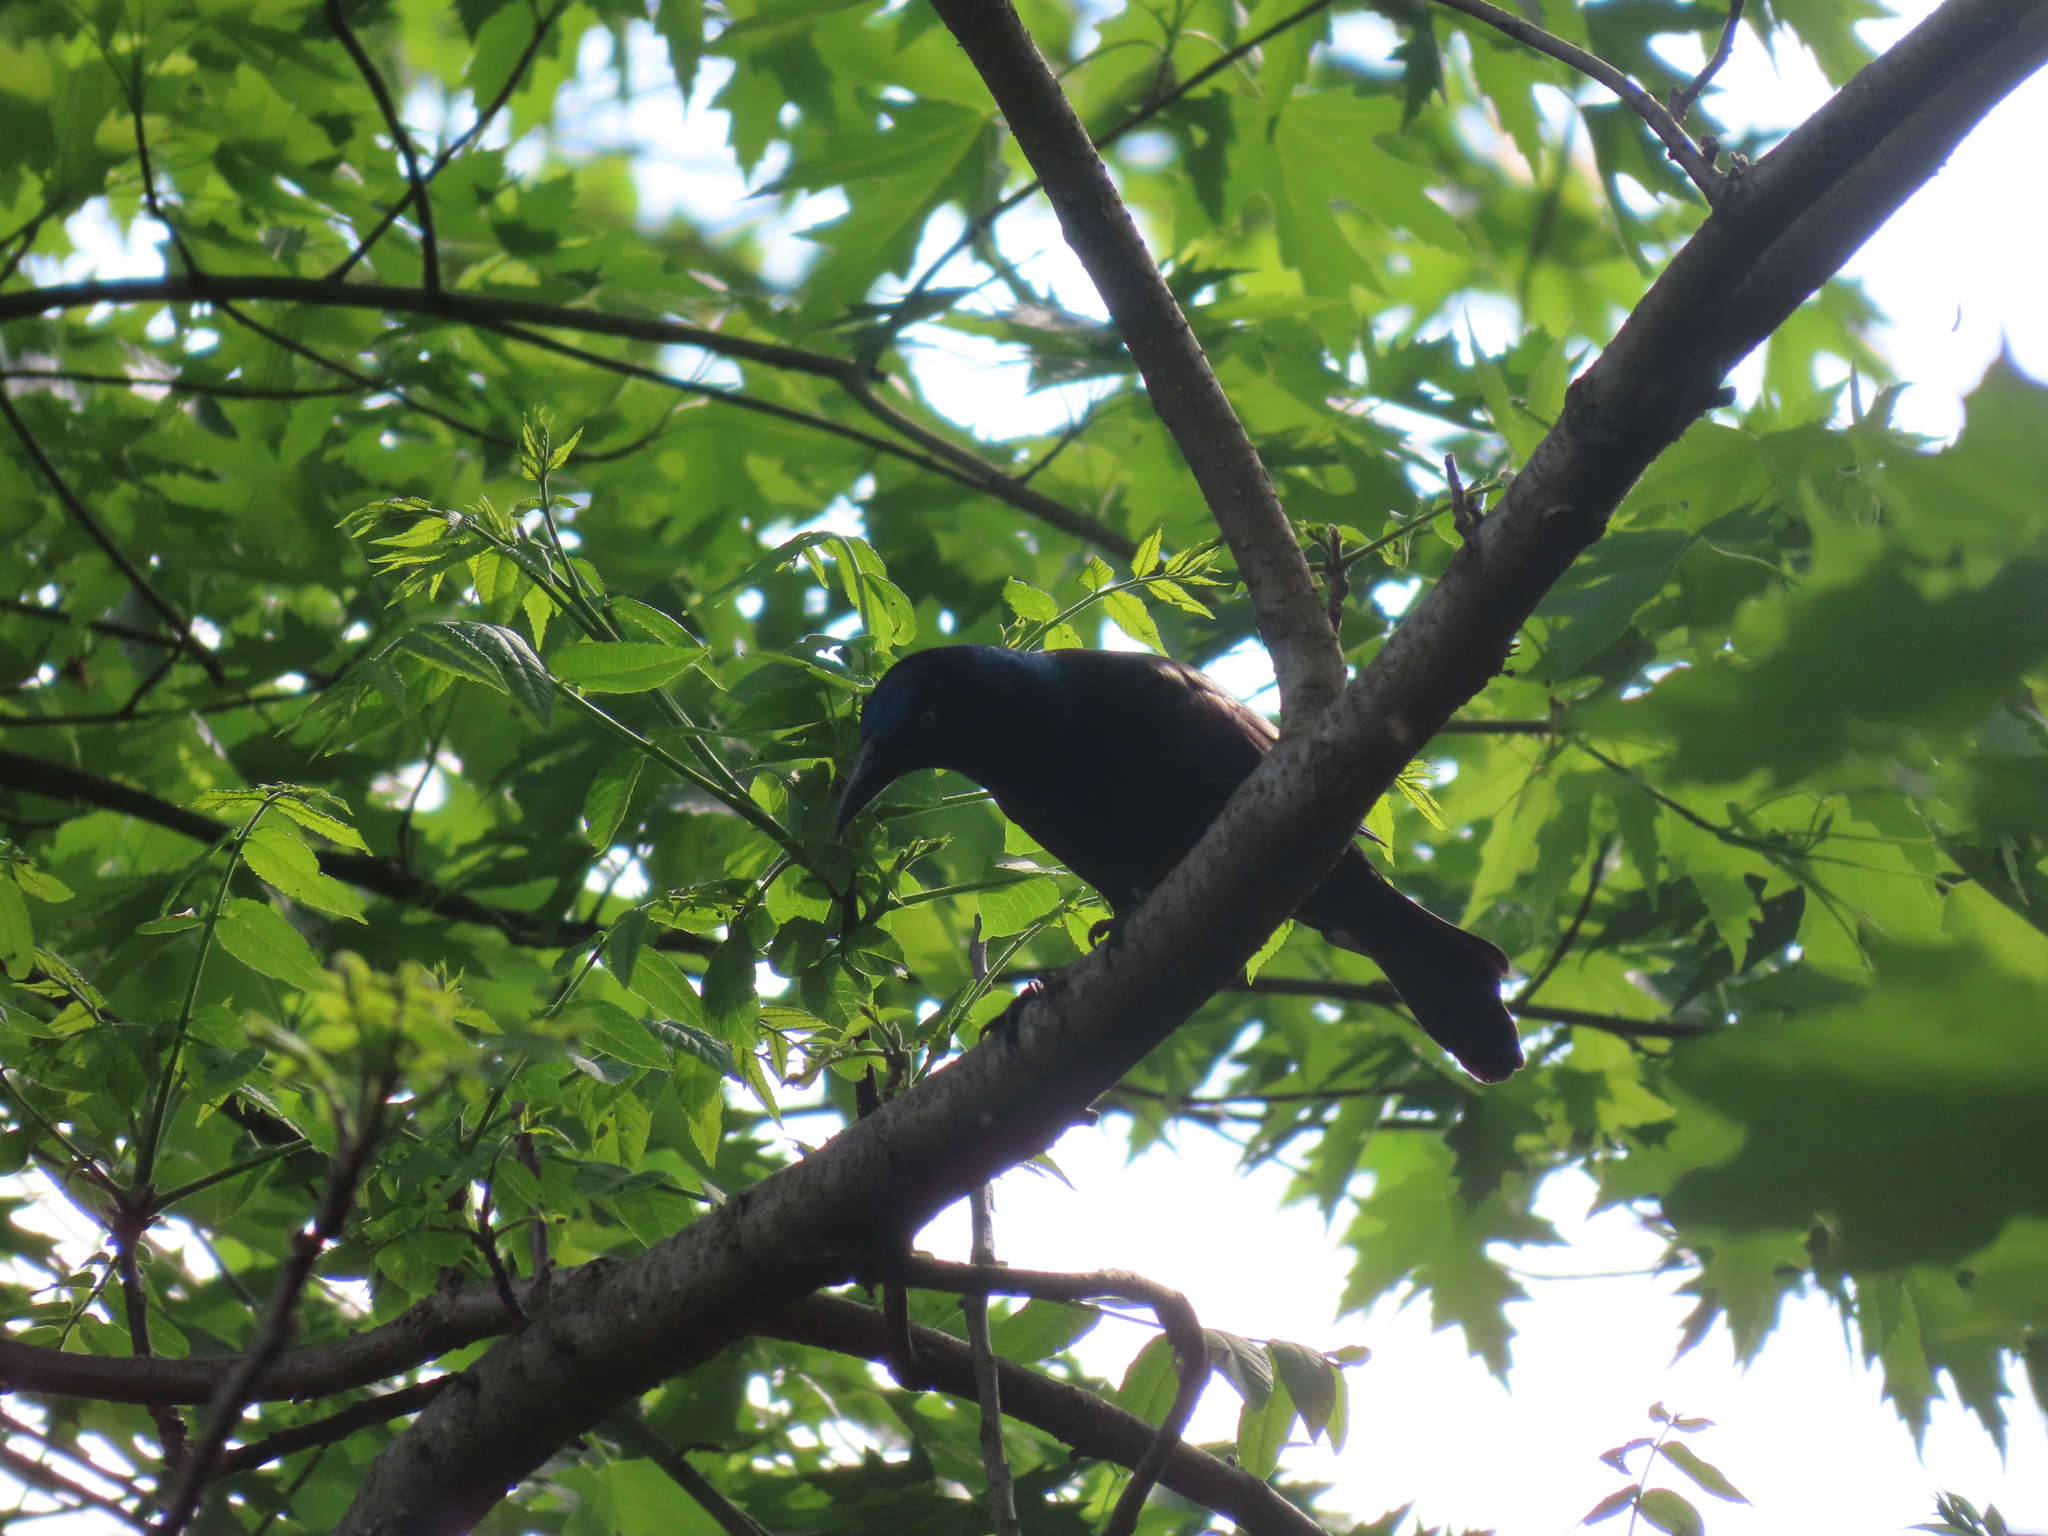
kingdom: Animalia
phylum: Chordata
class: Aves
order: Passeriformes
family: Icteridae
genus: Quiscalus
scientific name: Quiscalus quiscula
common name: Common grackle
